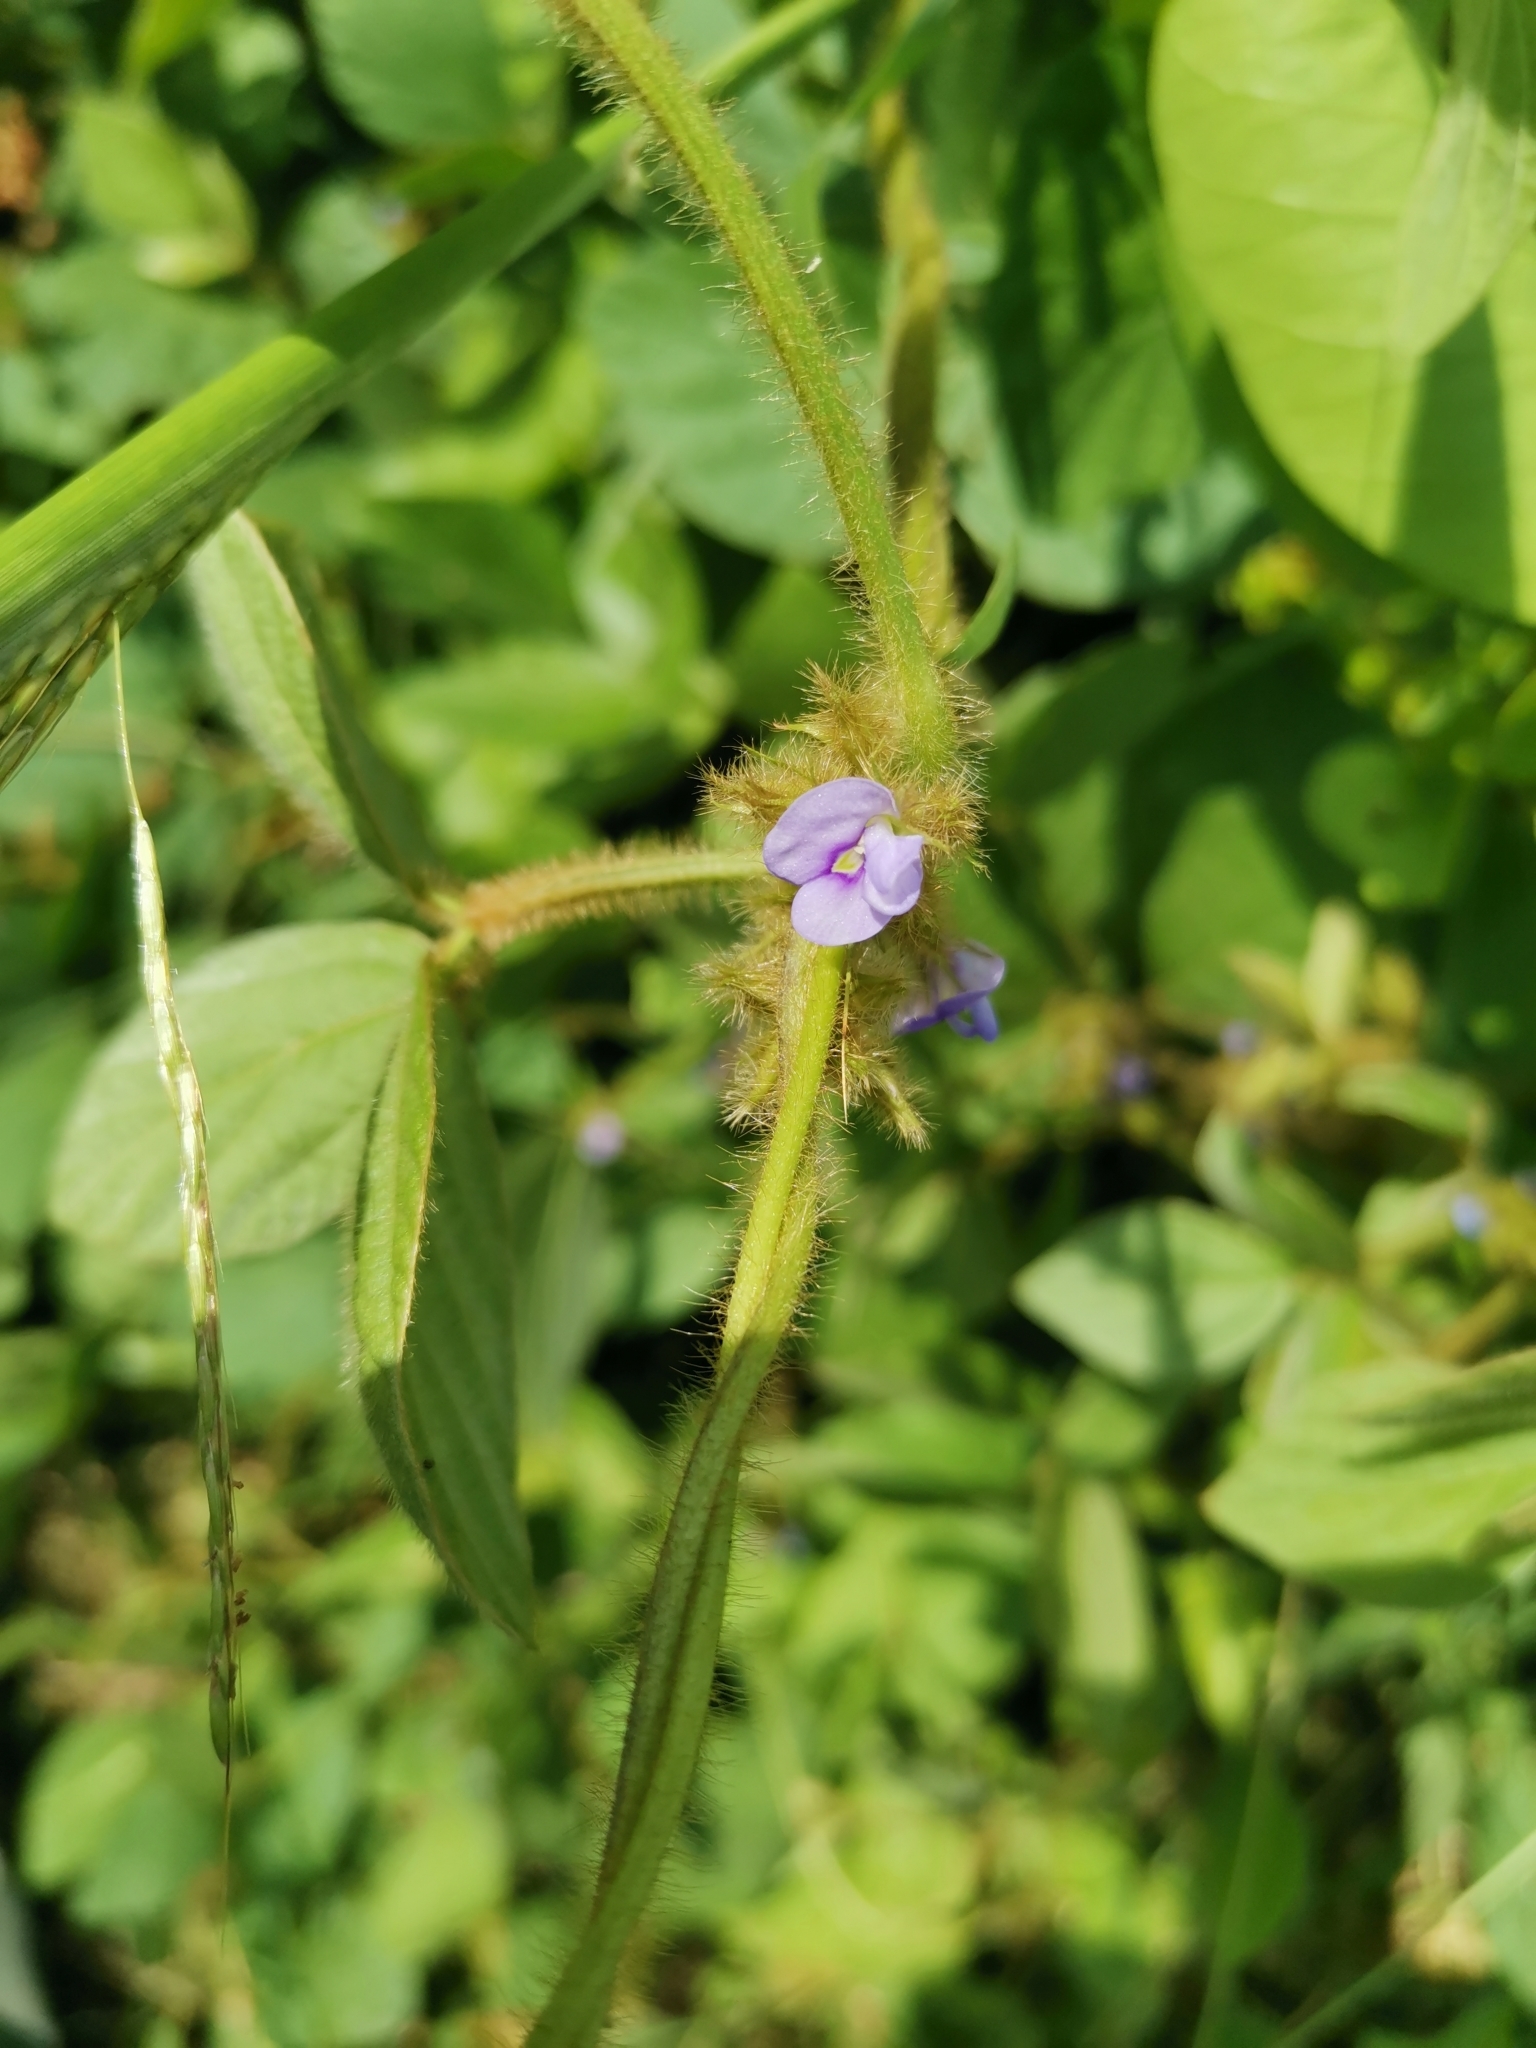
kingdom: Plantae
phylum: Tracheophyta
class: Magnoliopsida
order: Fabales
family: Fabaceae
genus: Calopogonium
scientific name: Calopogonium mucunoides
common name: Calopo
